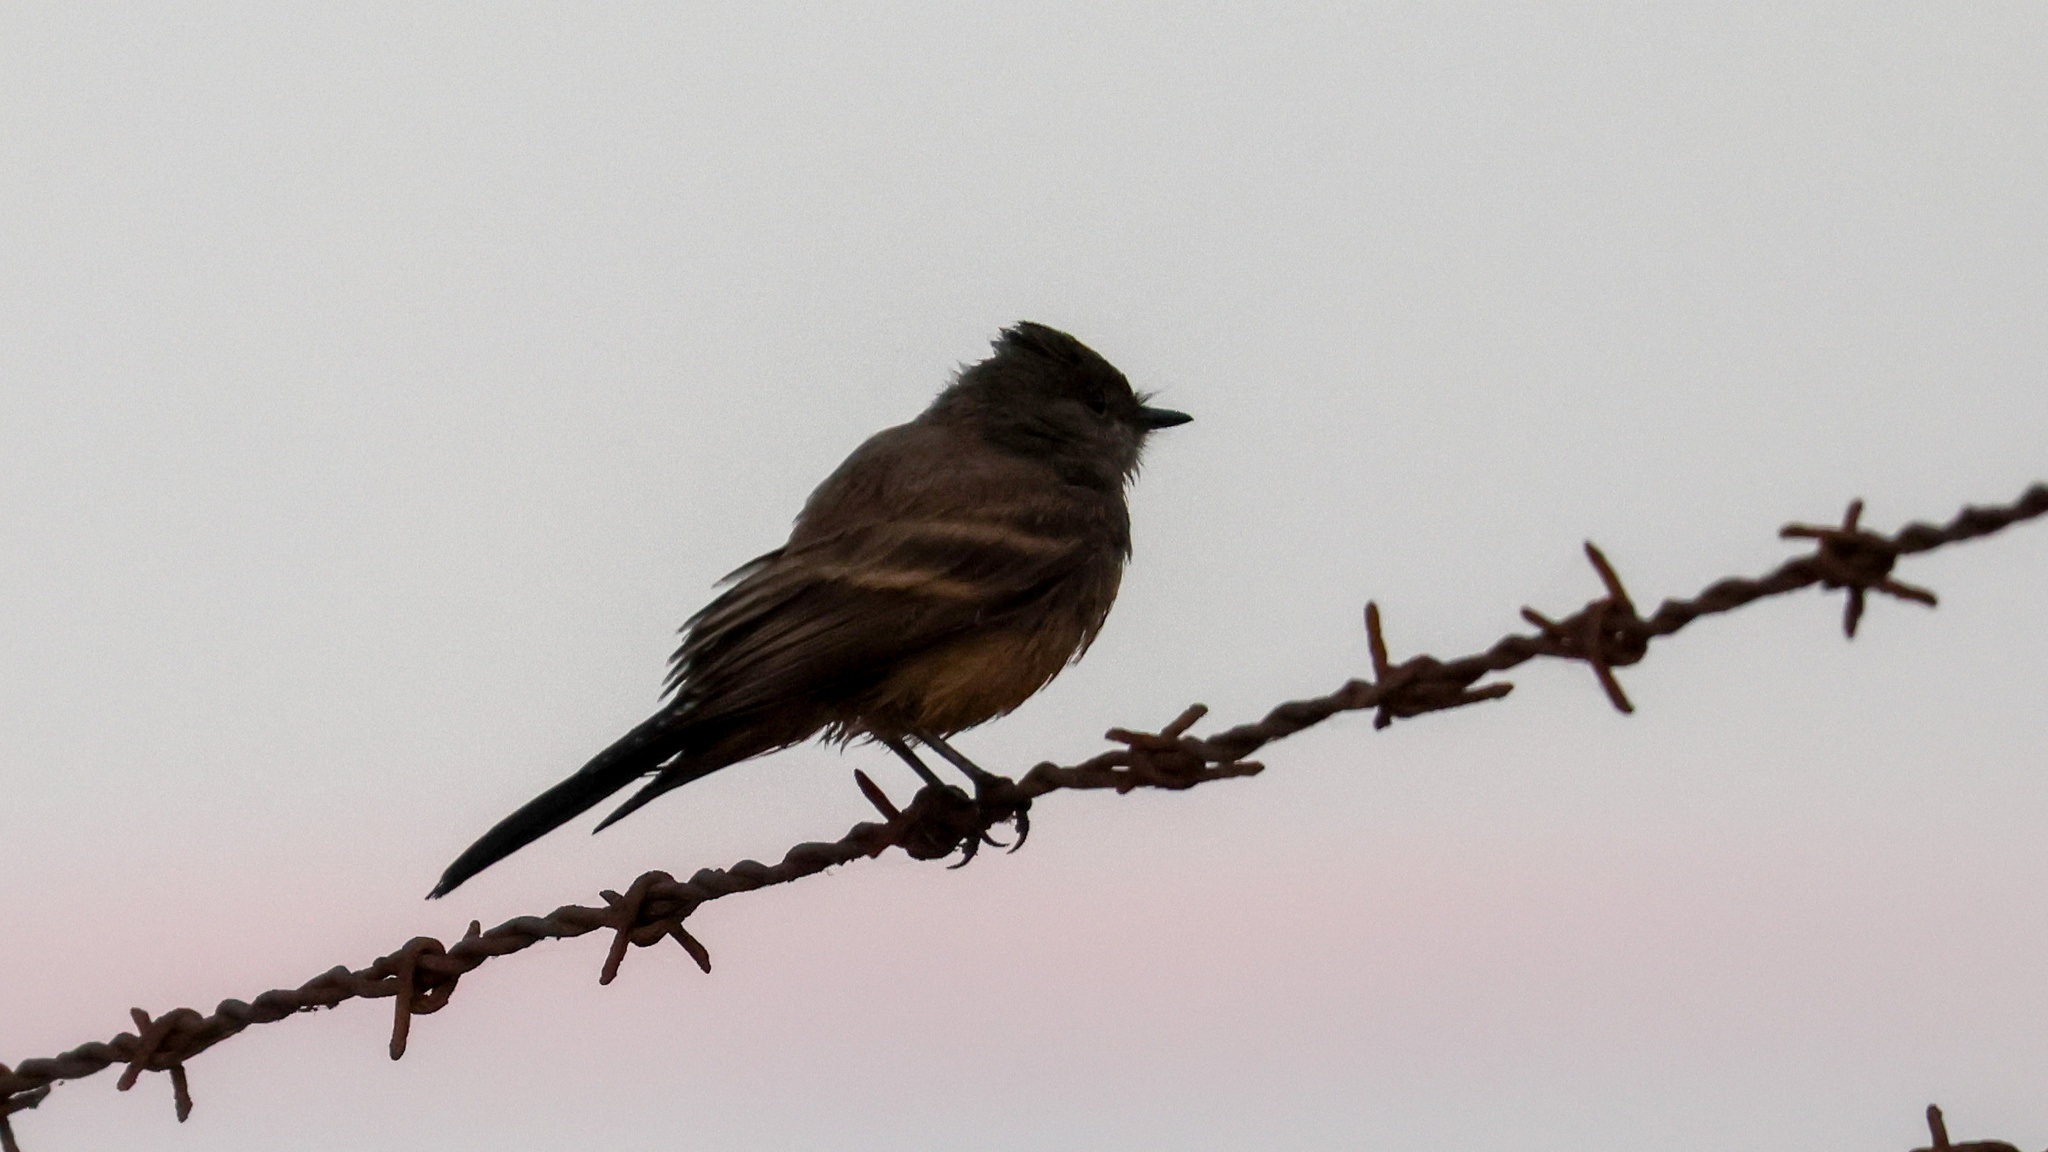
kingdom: Animalia
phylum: Chordata
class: Aves
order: Passeriformes
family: Tyrannidae
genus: Sayornis
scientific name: Sayornis saya
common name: Say's phoebe
